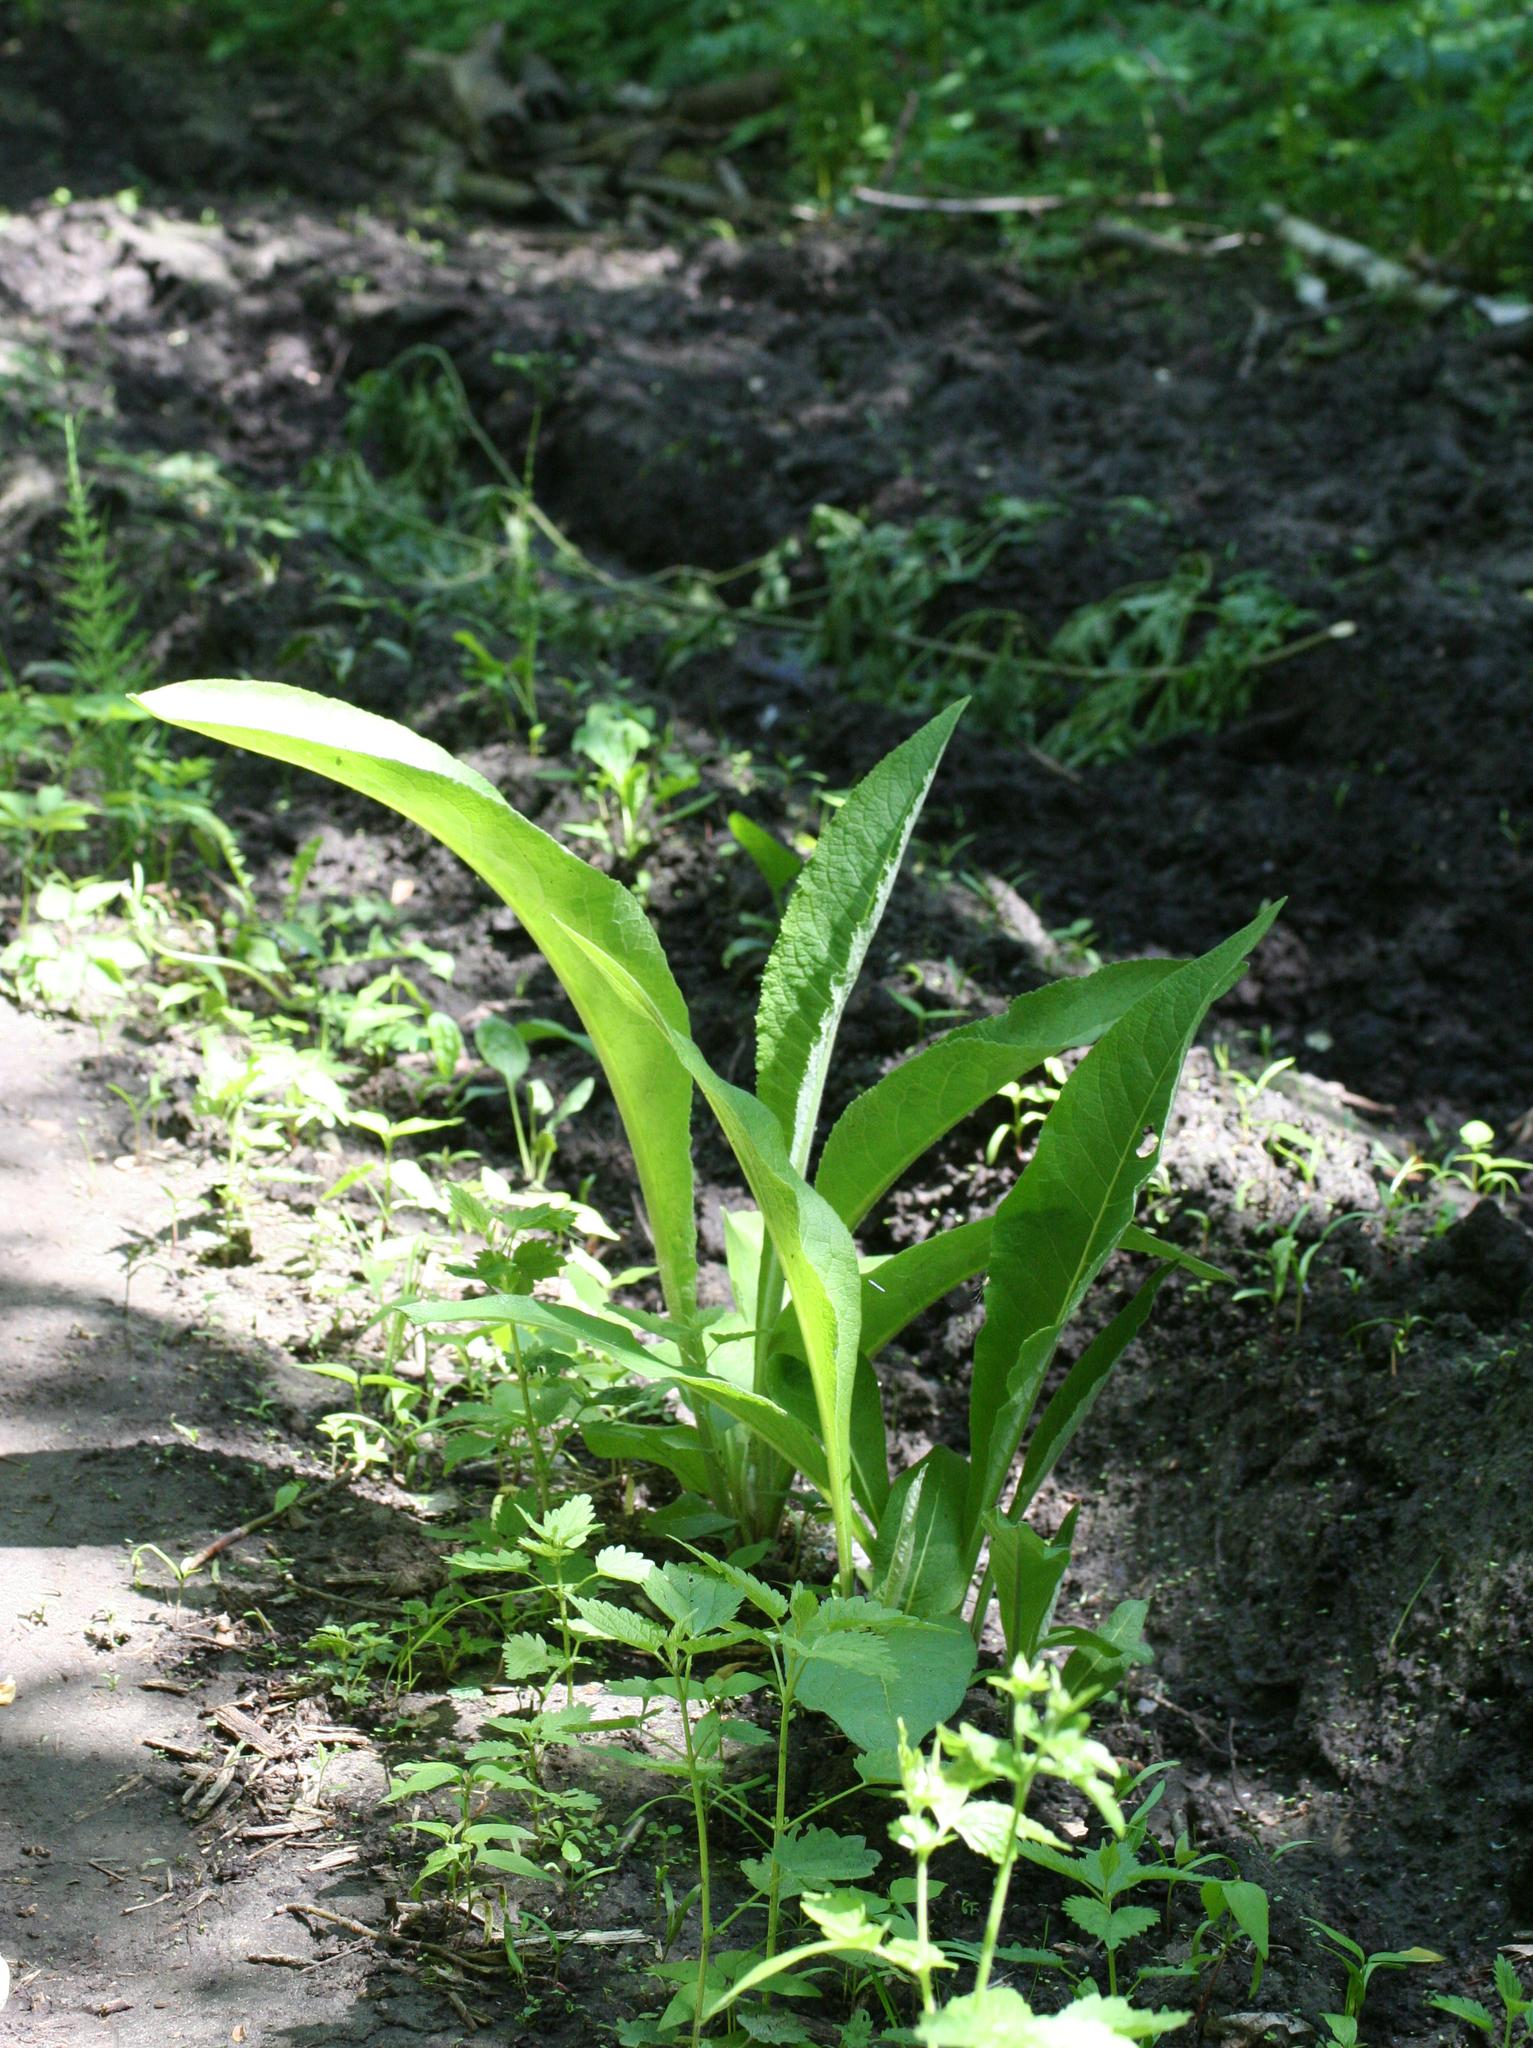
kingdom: Plantae
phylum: Tracheophyta
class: Magnoliopsida
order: Asterales
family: Asteraceae
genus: Inula
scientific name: Inula helenium
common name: Elecampane
